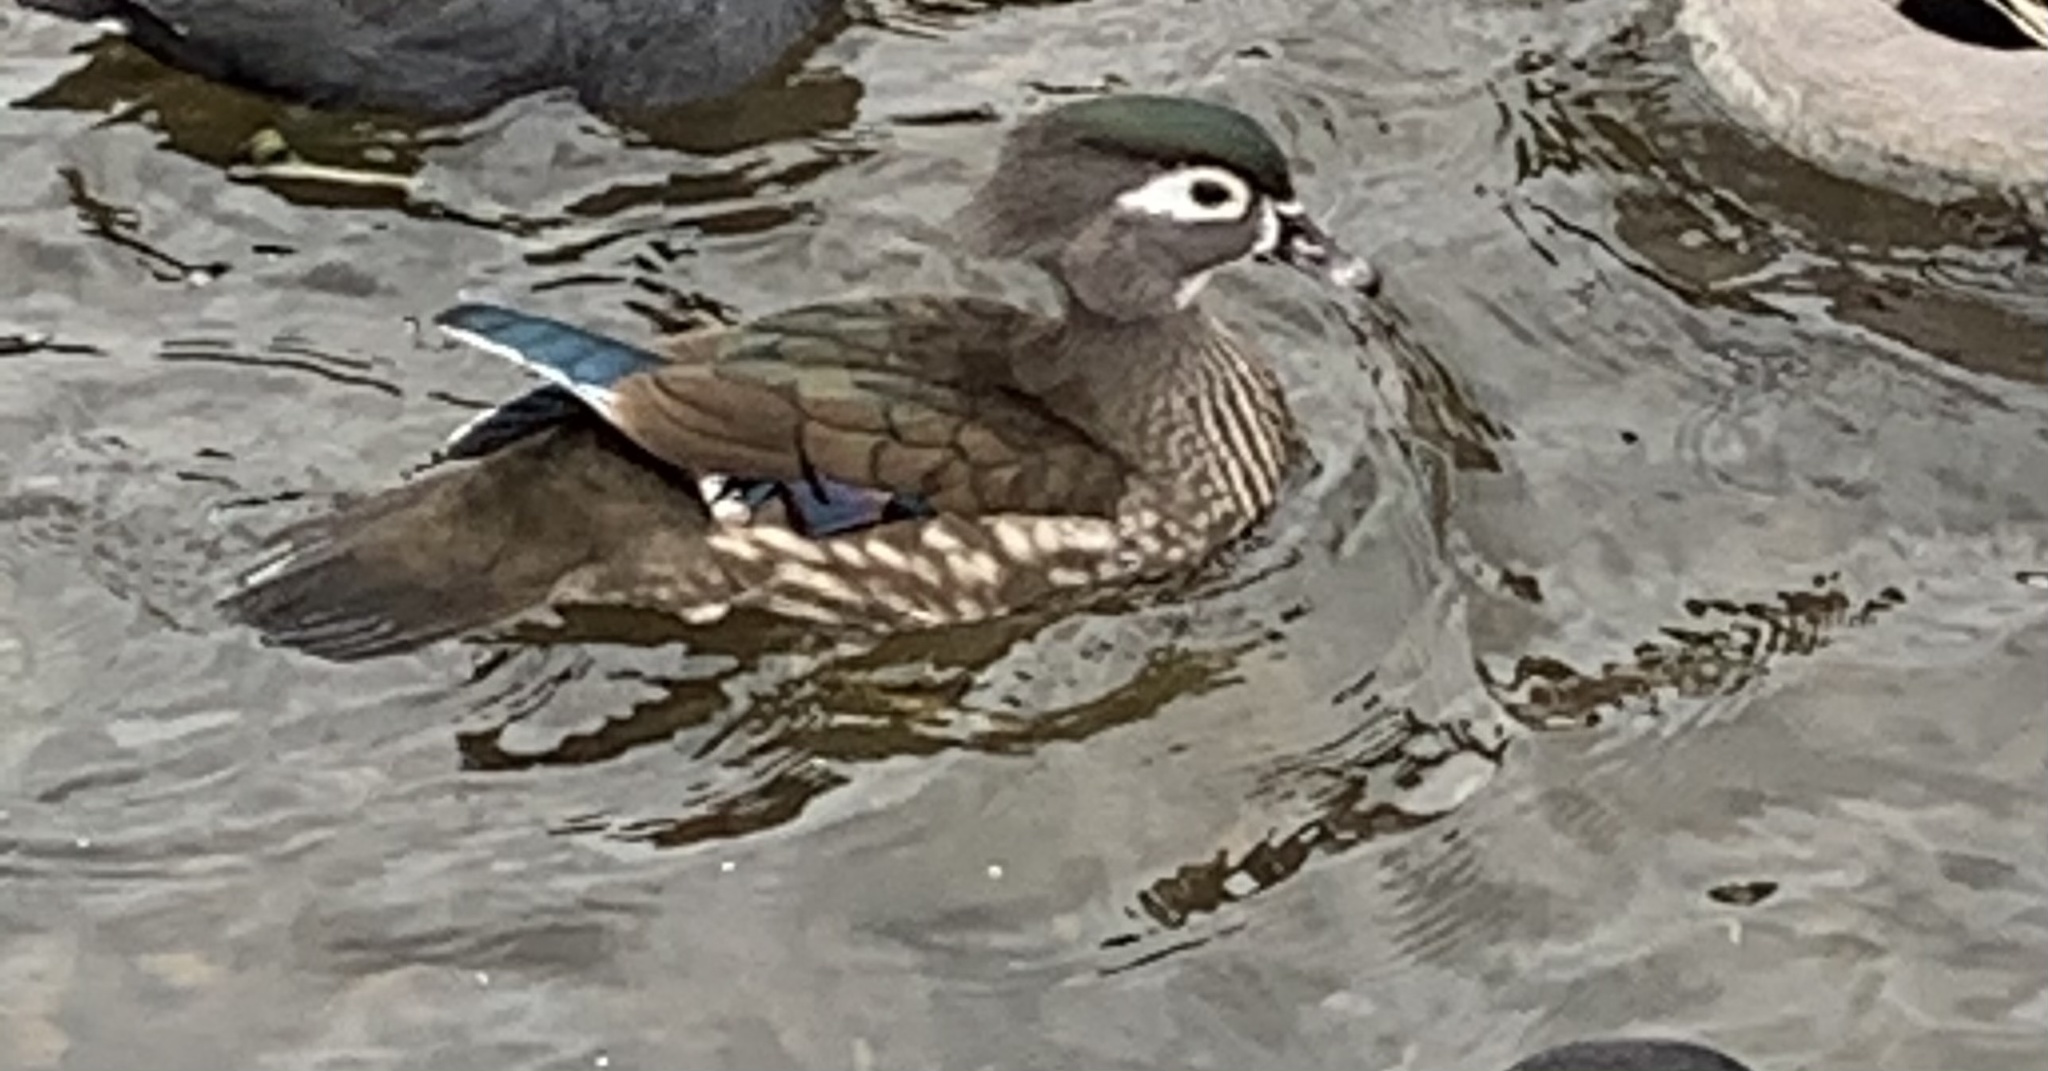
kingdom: Animalia
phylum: Chordata
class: Aves
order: Anseriformes
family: Anatidae
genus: Aix
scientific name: Aix sponsa
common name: Wood duck
